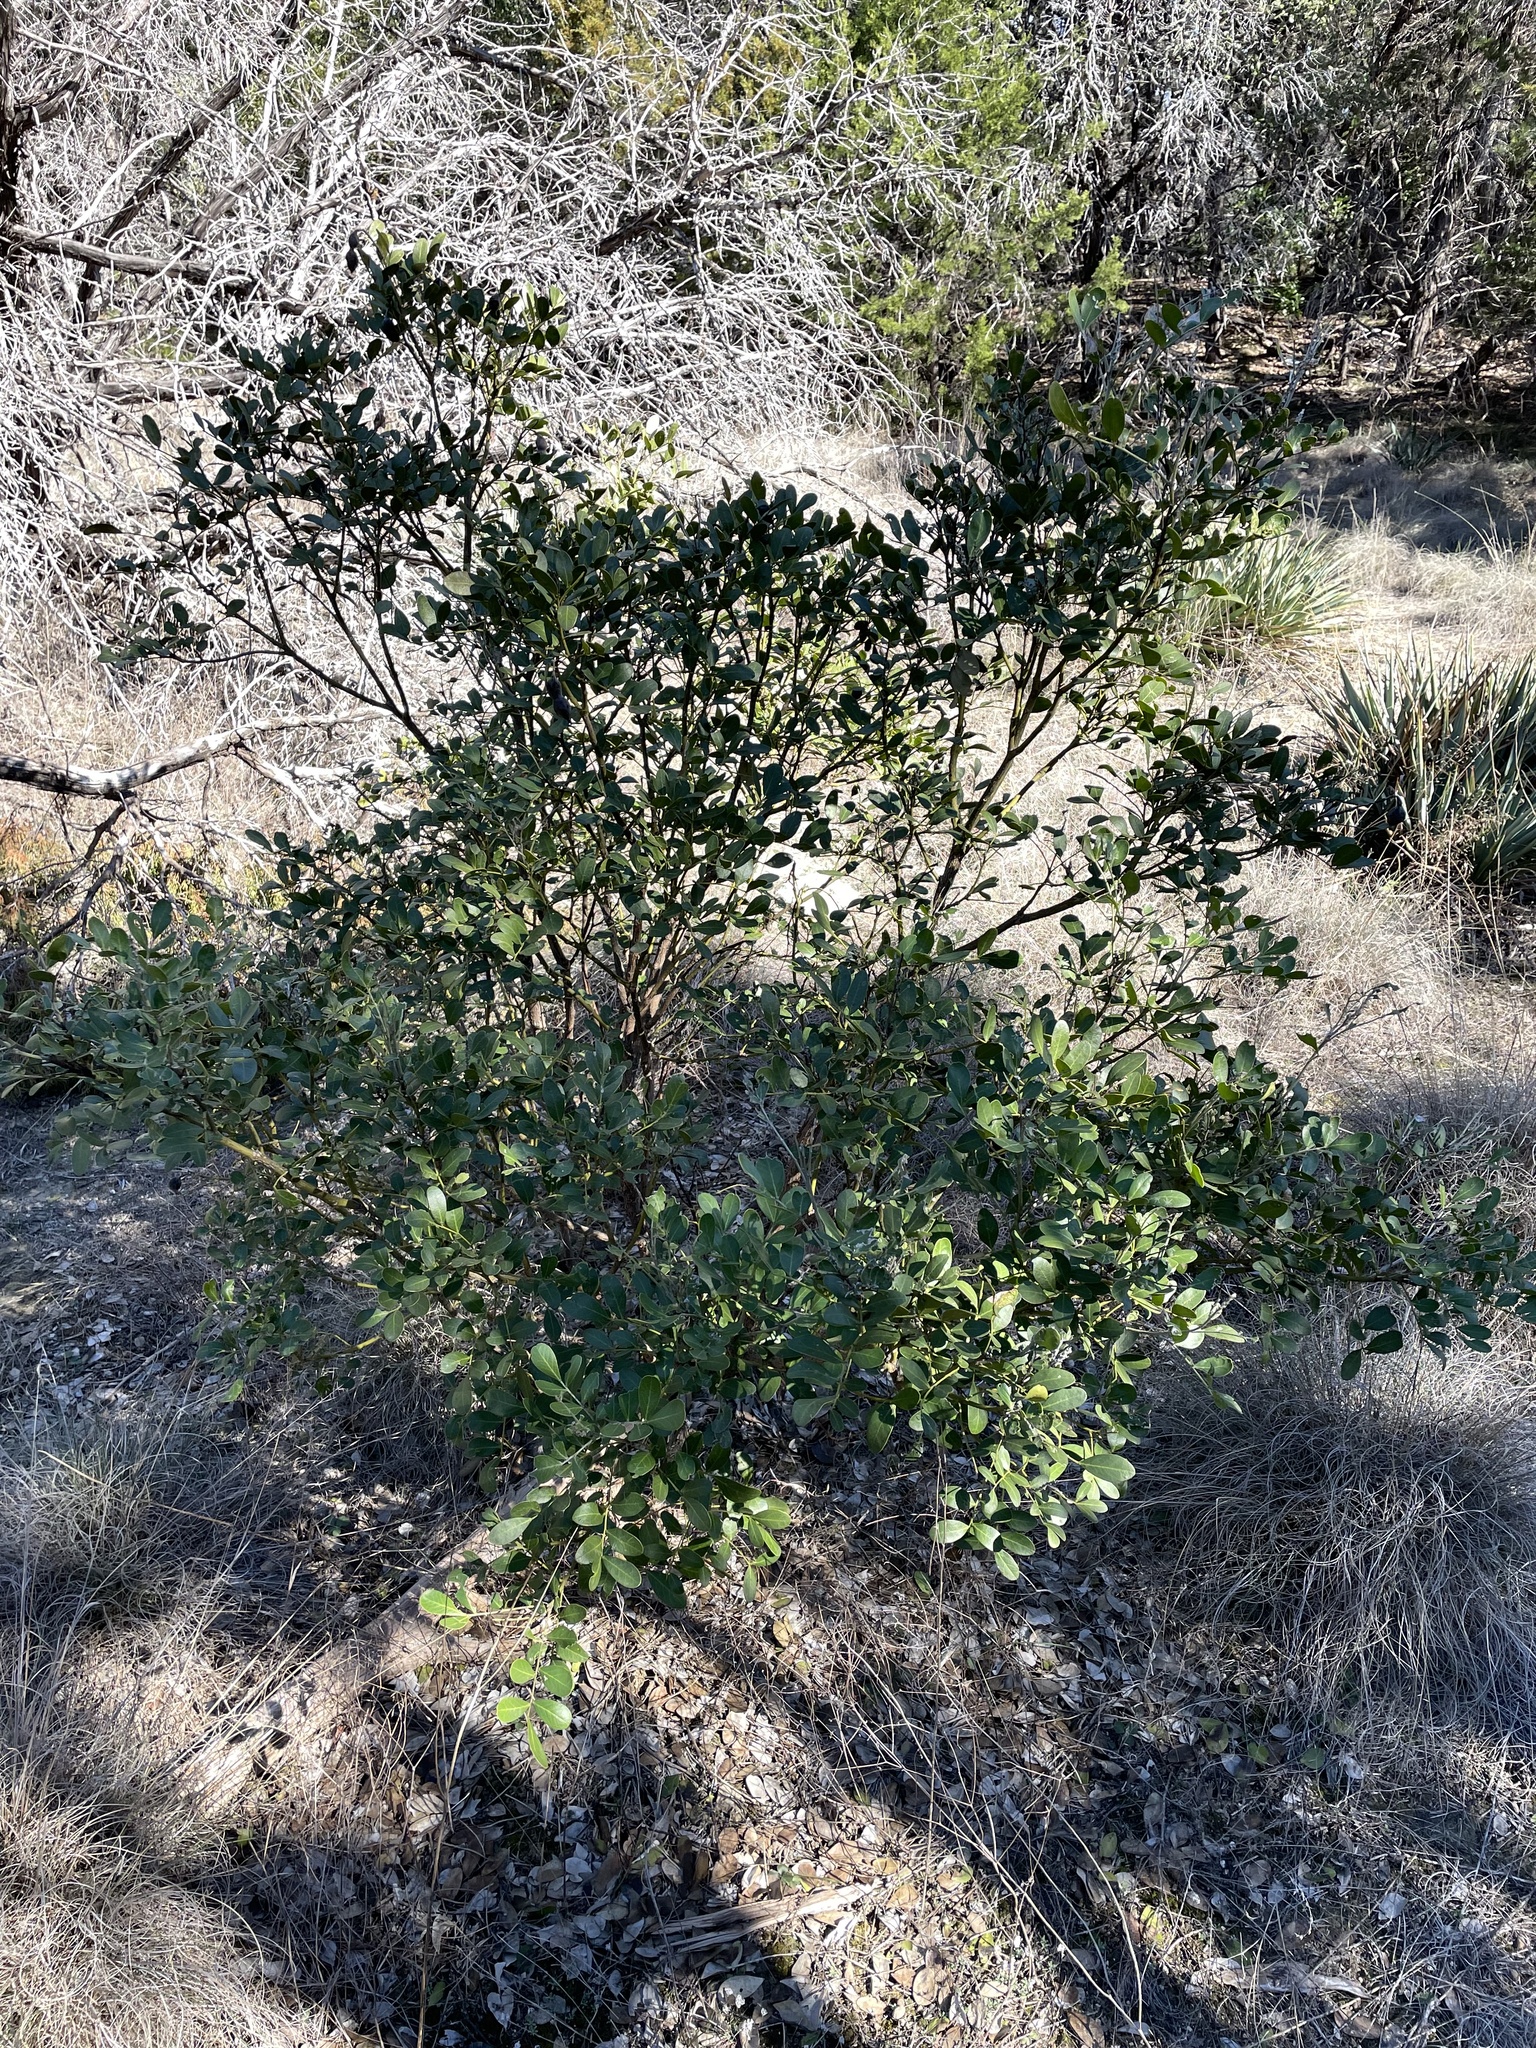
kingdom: Plantae
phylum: Tracheophyta
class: Magnoliopsida
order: Fabales
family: Fabaceae
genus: Dermatophyllum
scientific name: Dermatophyllum secundiflorum
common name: Texas-mountain-laurel
